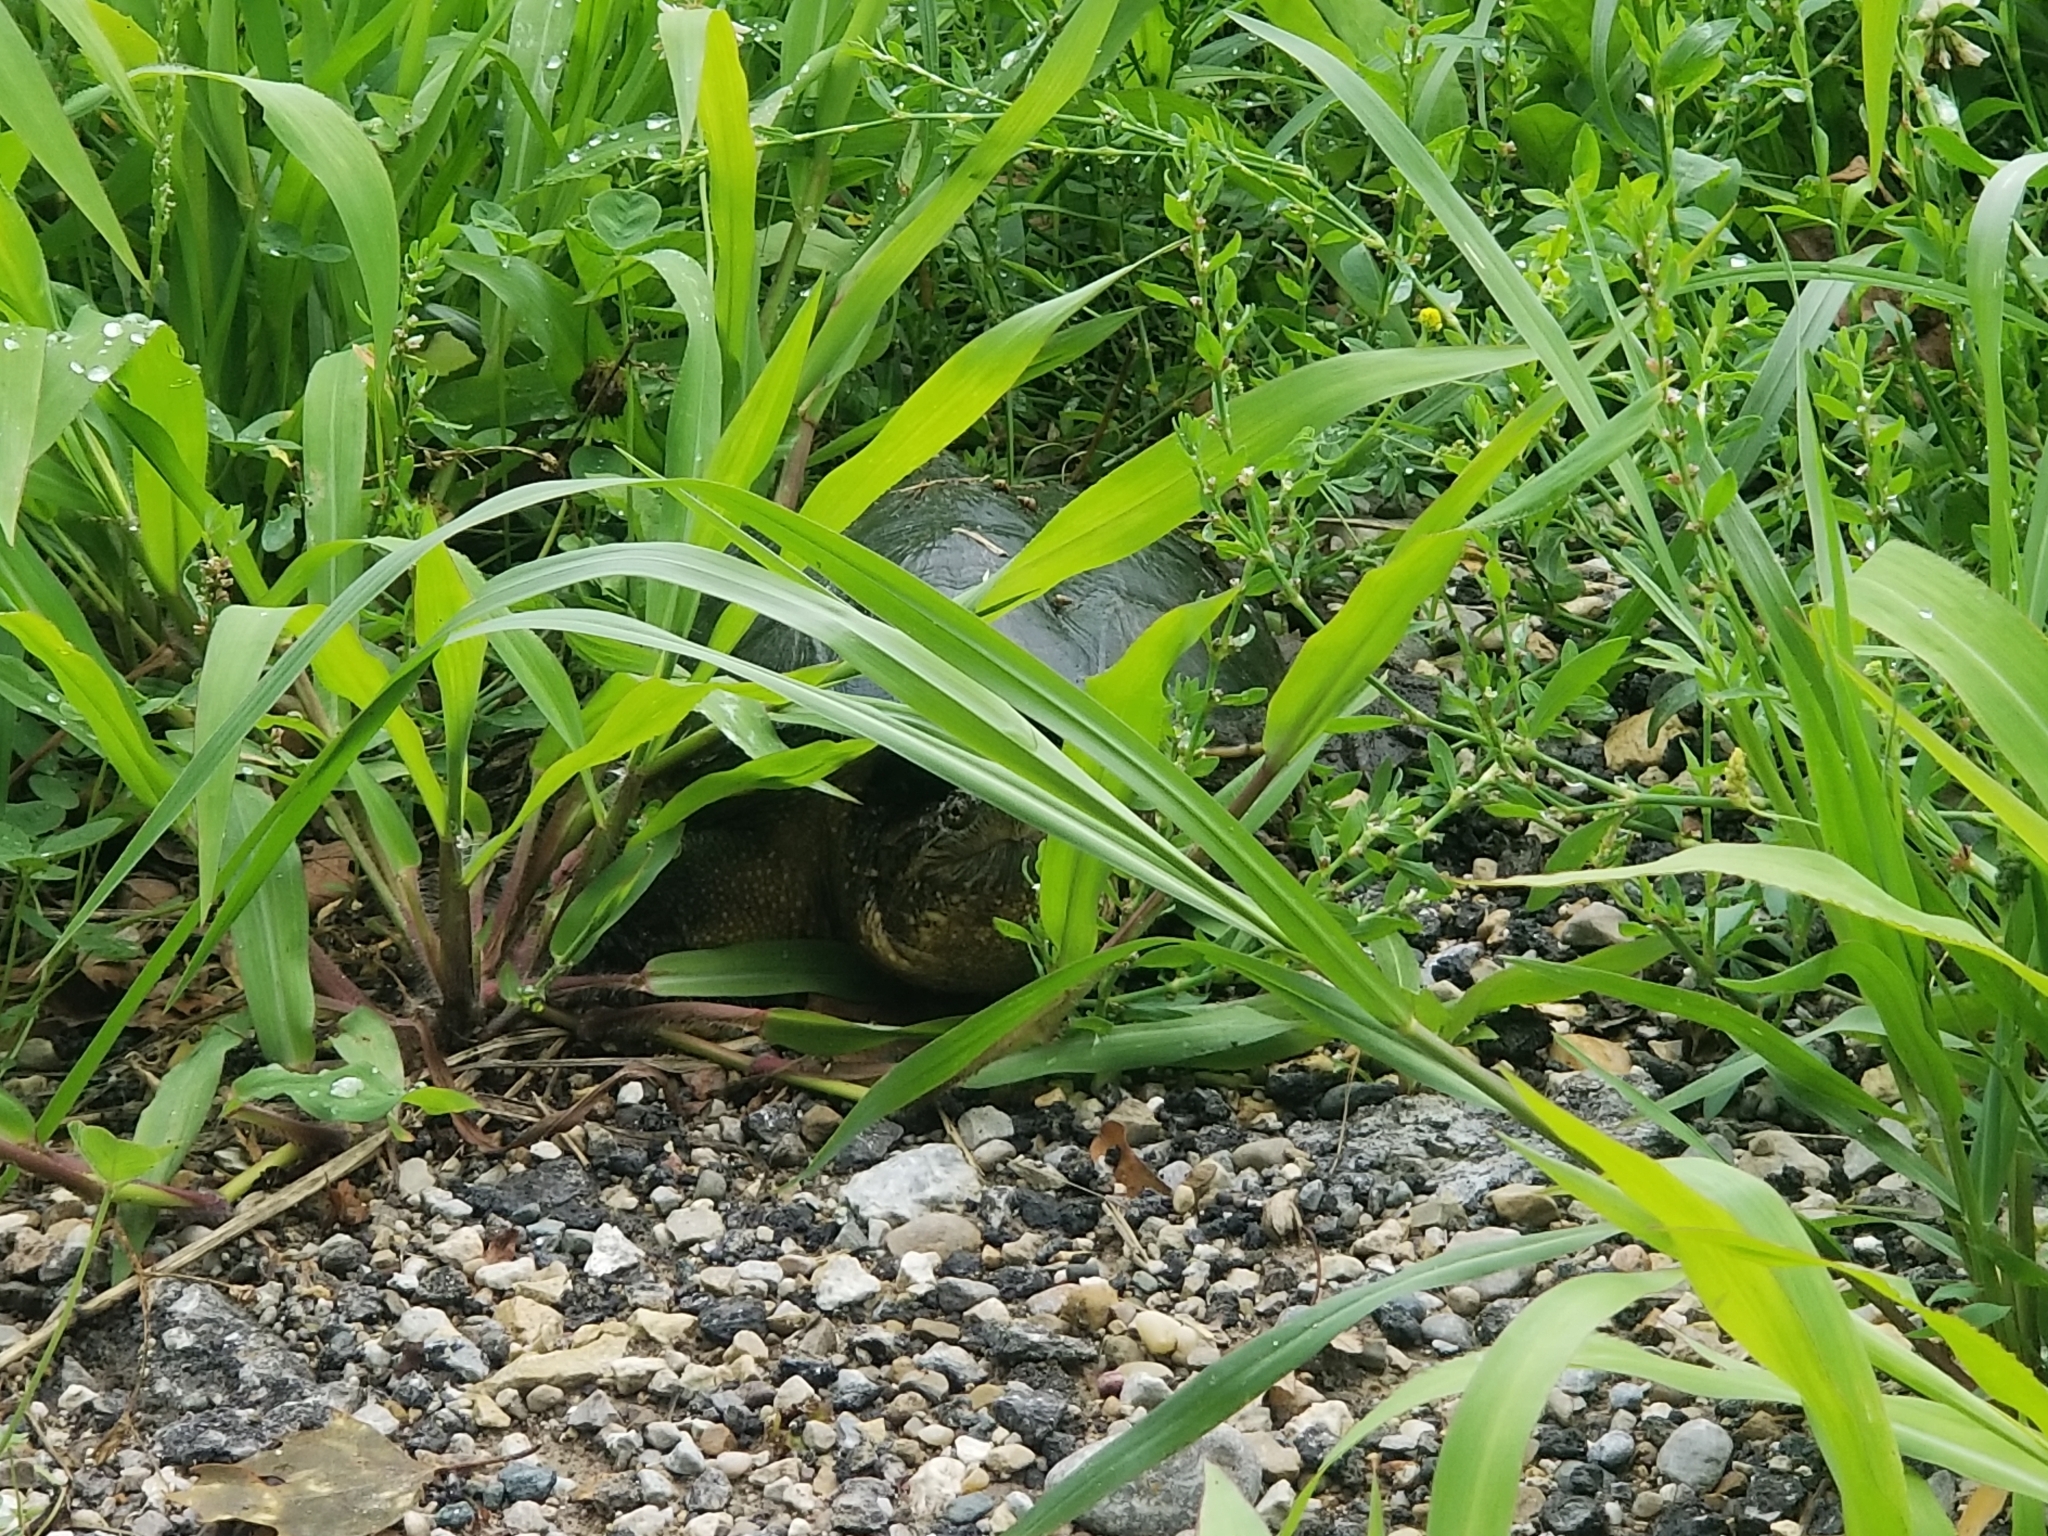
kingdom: Animalia
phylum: Chordata
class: Testudines
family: Chelydridae
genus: Chelydra
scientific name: Chelydra serpentina
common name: Common snapping turtle
